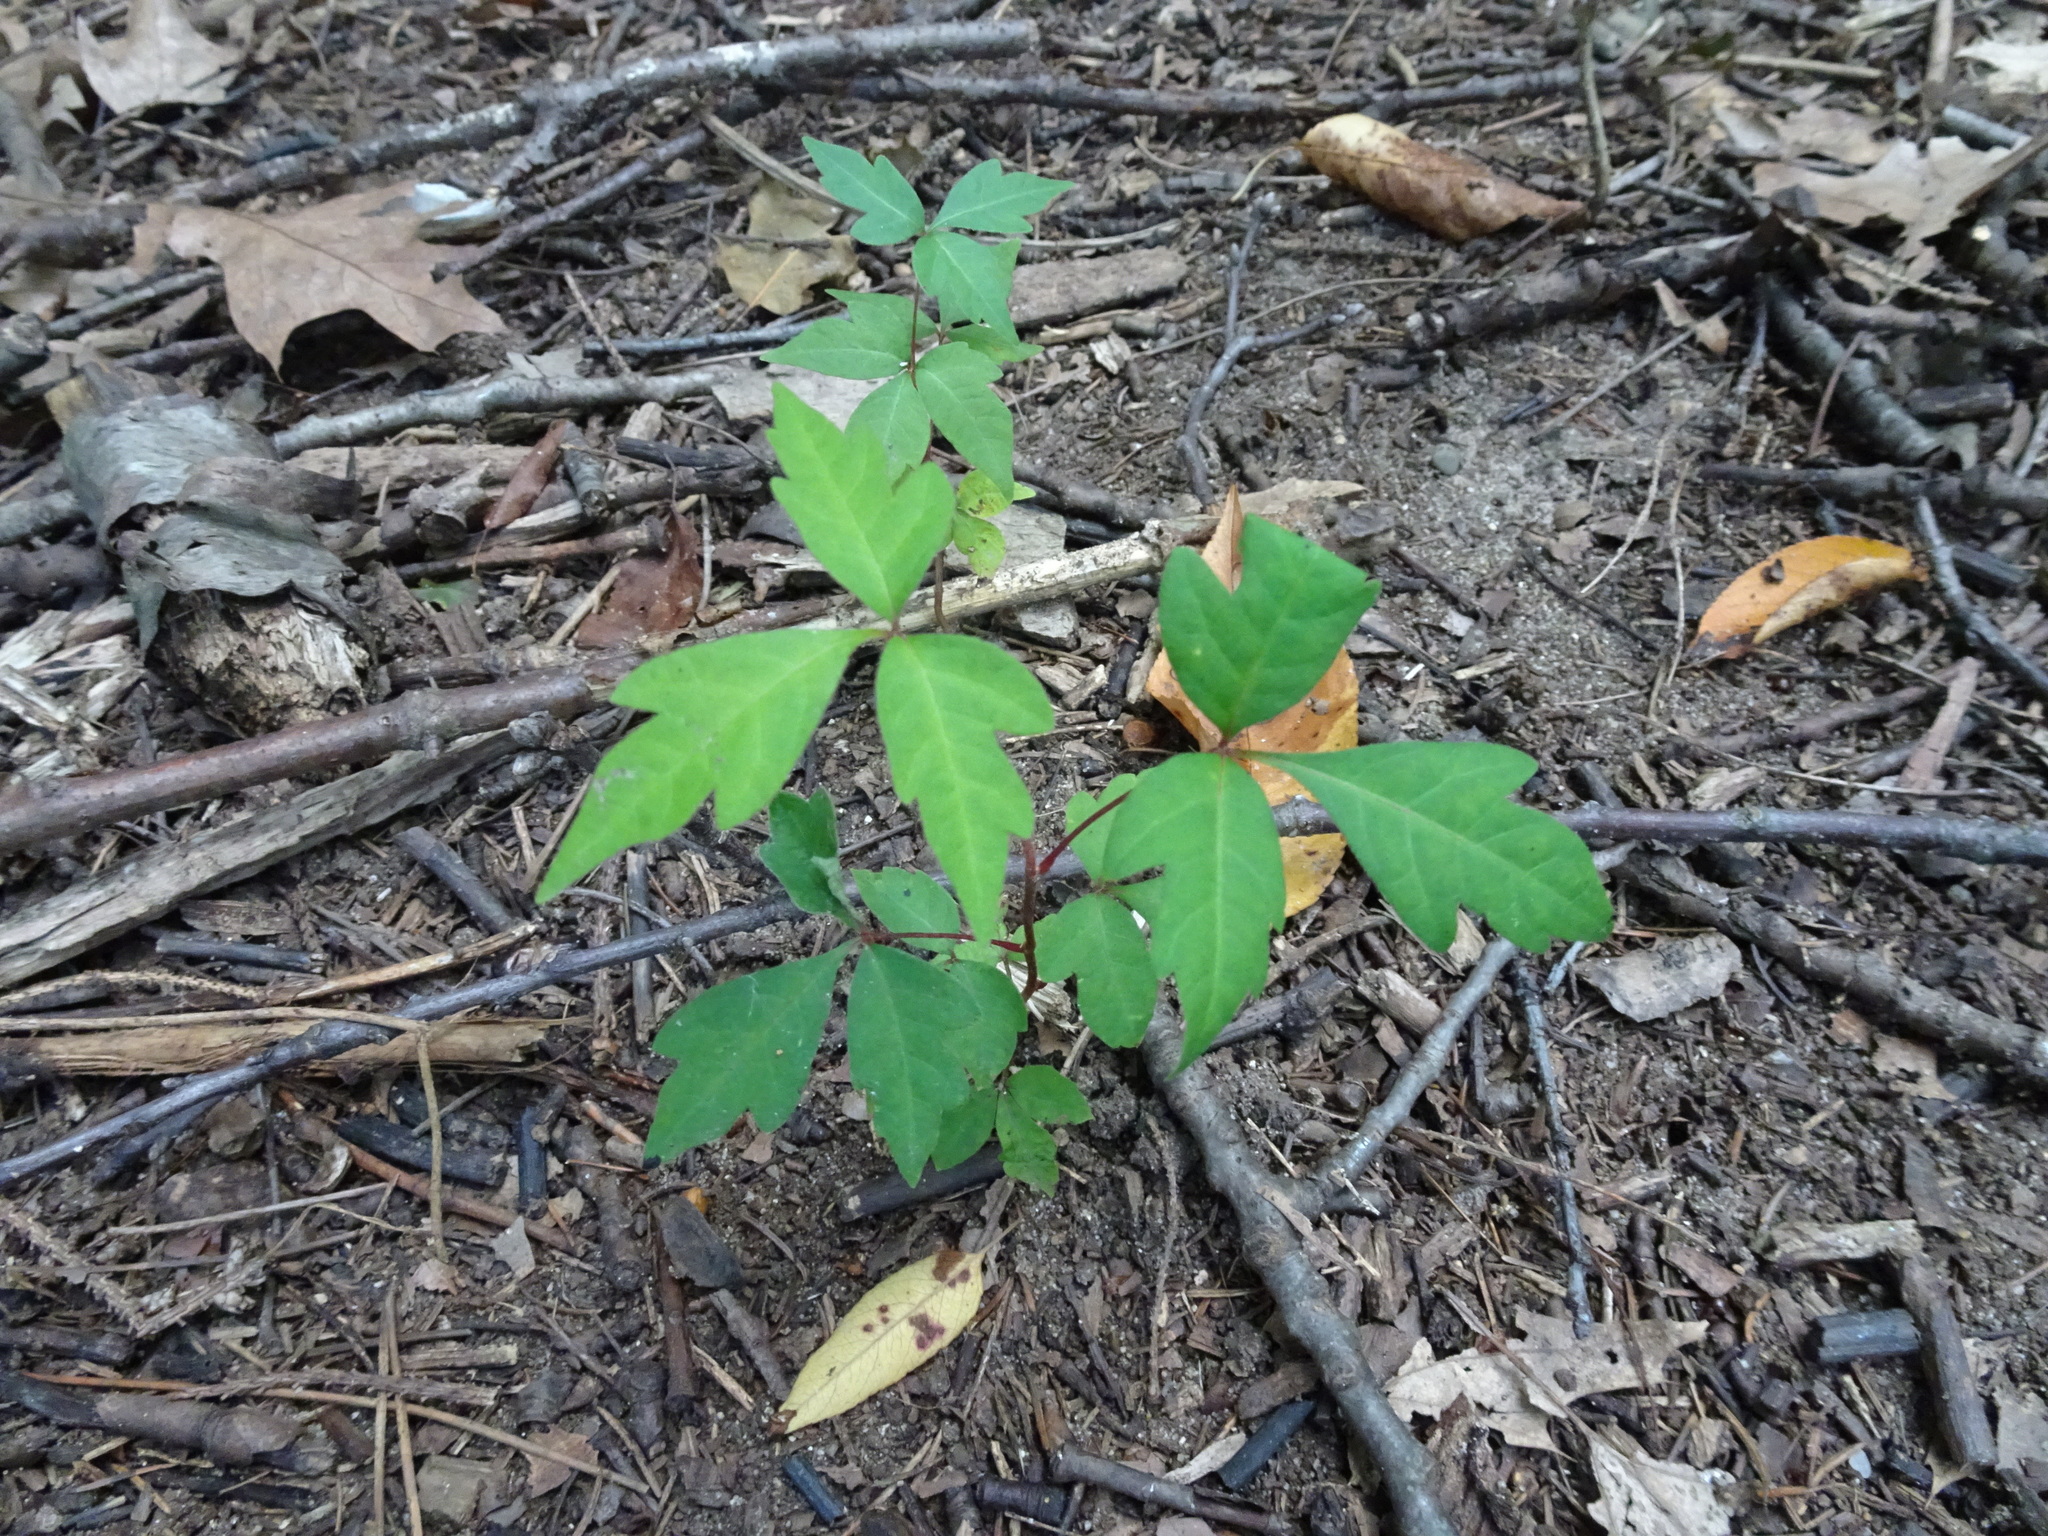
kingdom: Plantae
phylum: Tracheophyta
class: Magnoliopsida
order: Sapindales
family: Anacardiaceae
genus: Toxicodendron
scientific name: Toxicodendron radicans
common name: Poison ivy
